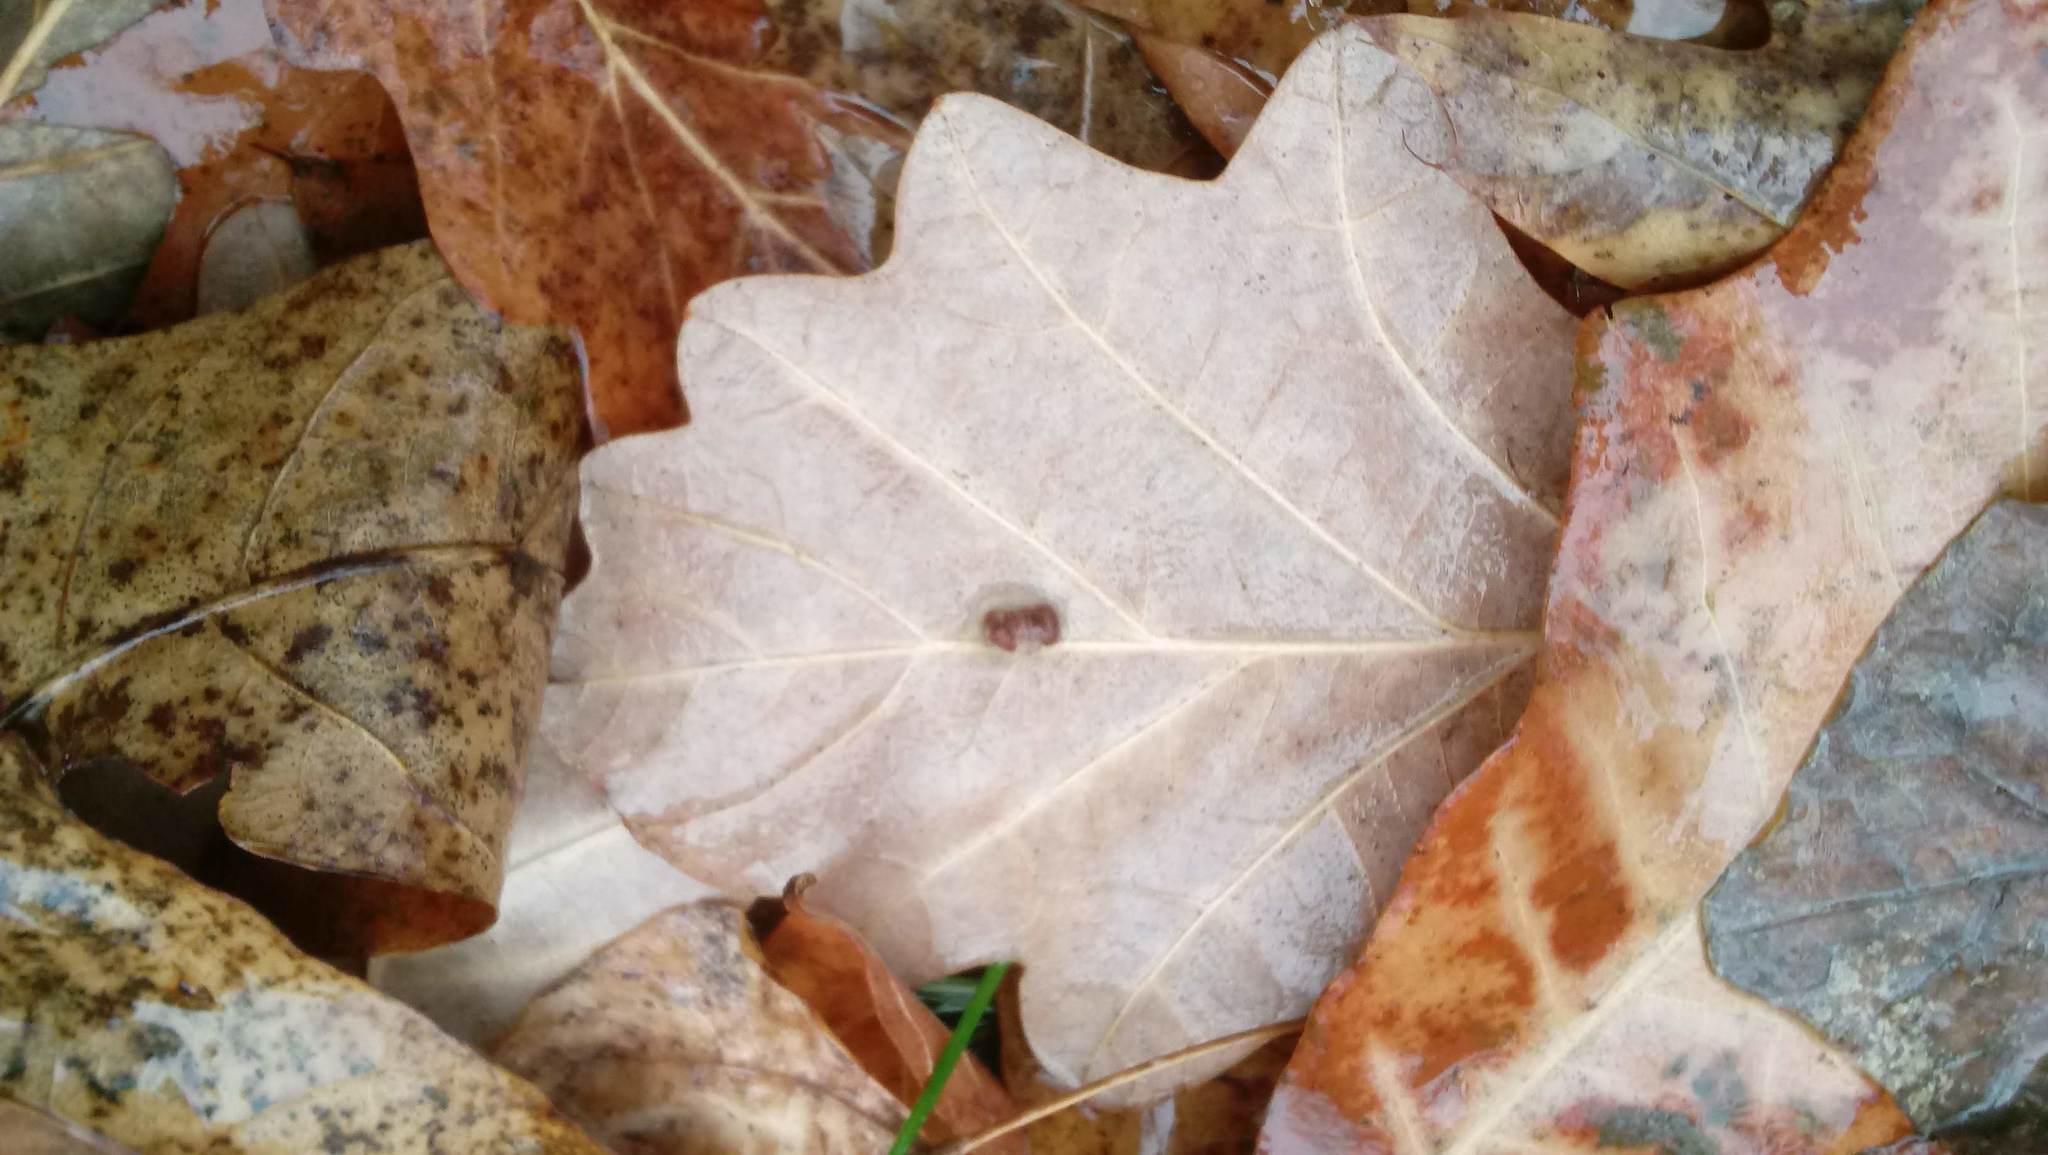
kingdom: Animalia
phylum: Arthropoda
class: Insecta
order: Hymenoptera
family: Cynipidae
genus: Andricus
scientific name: Andricus Druon ignotum
